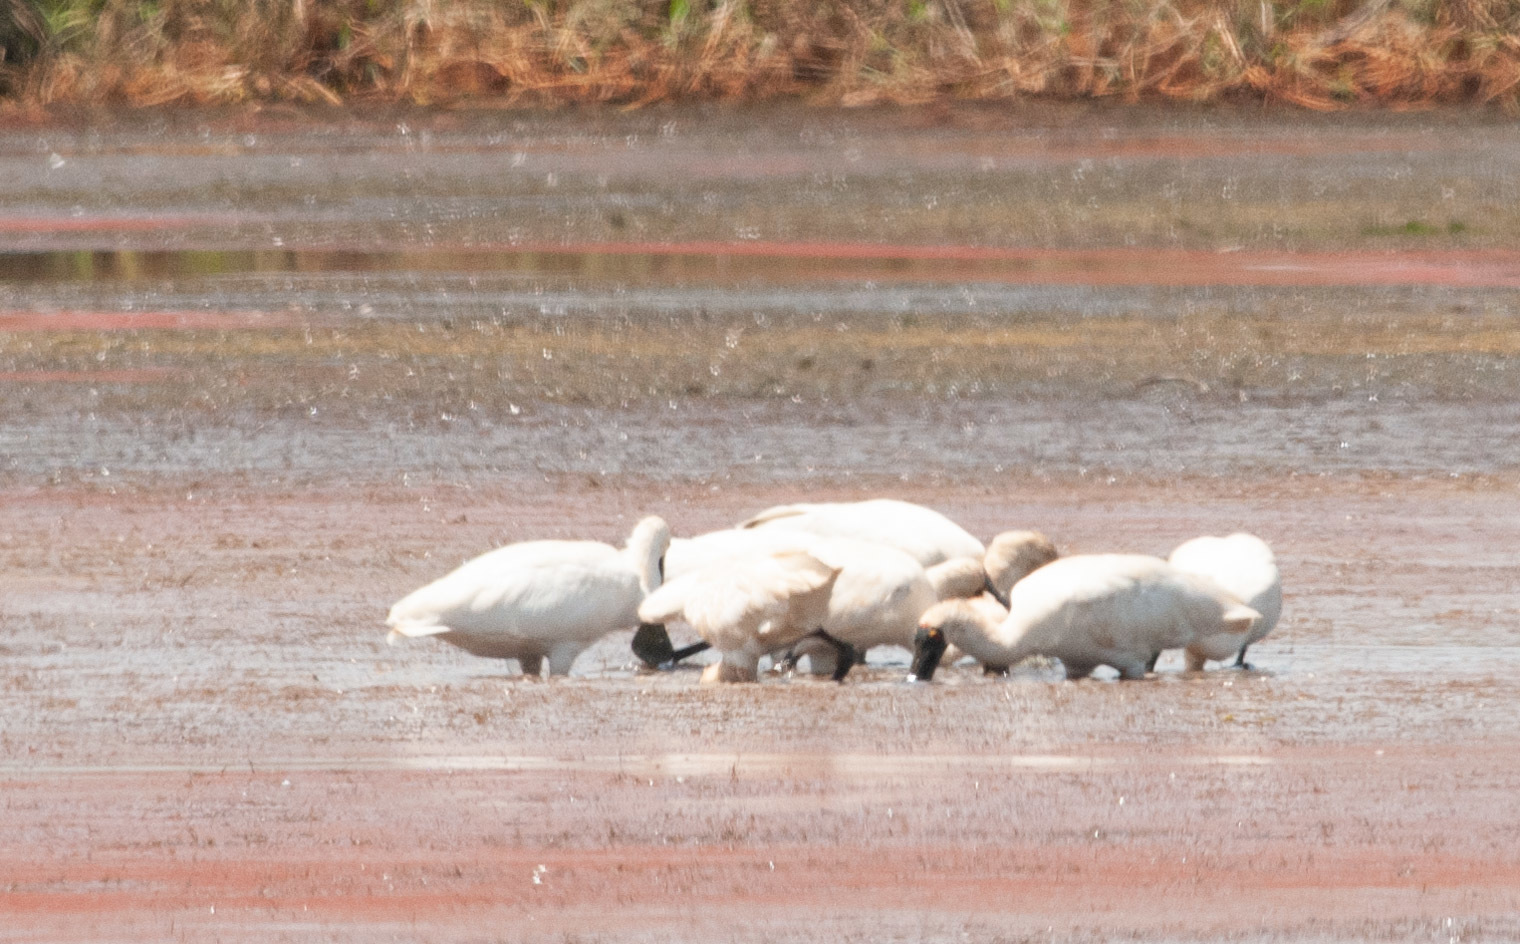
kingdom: Animalia
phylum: Chordata
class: Aves
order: Pelecaniformes
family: Threskiornithidae
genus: Platalea
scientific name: Platalea regia
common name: Royal spoonbill
